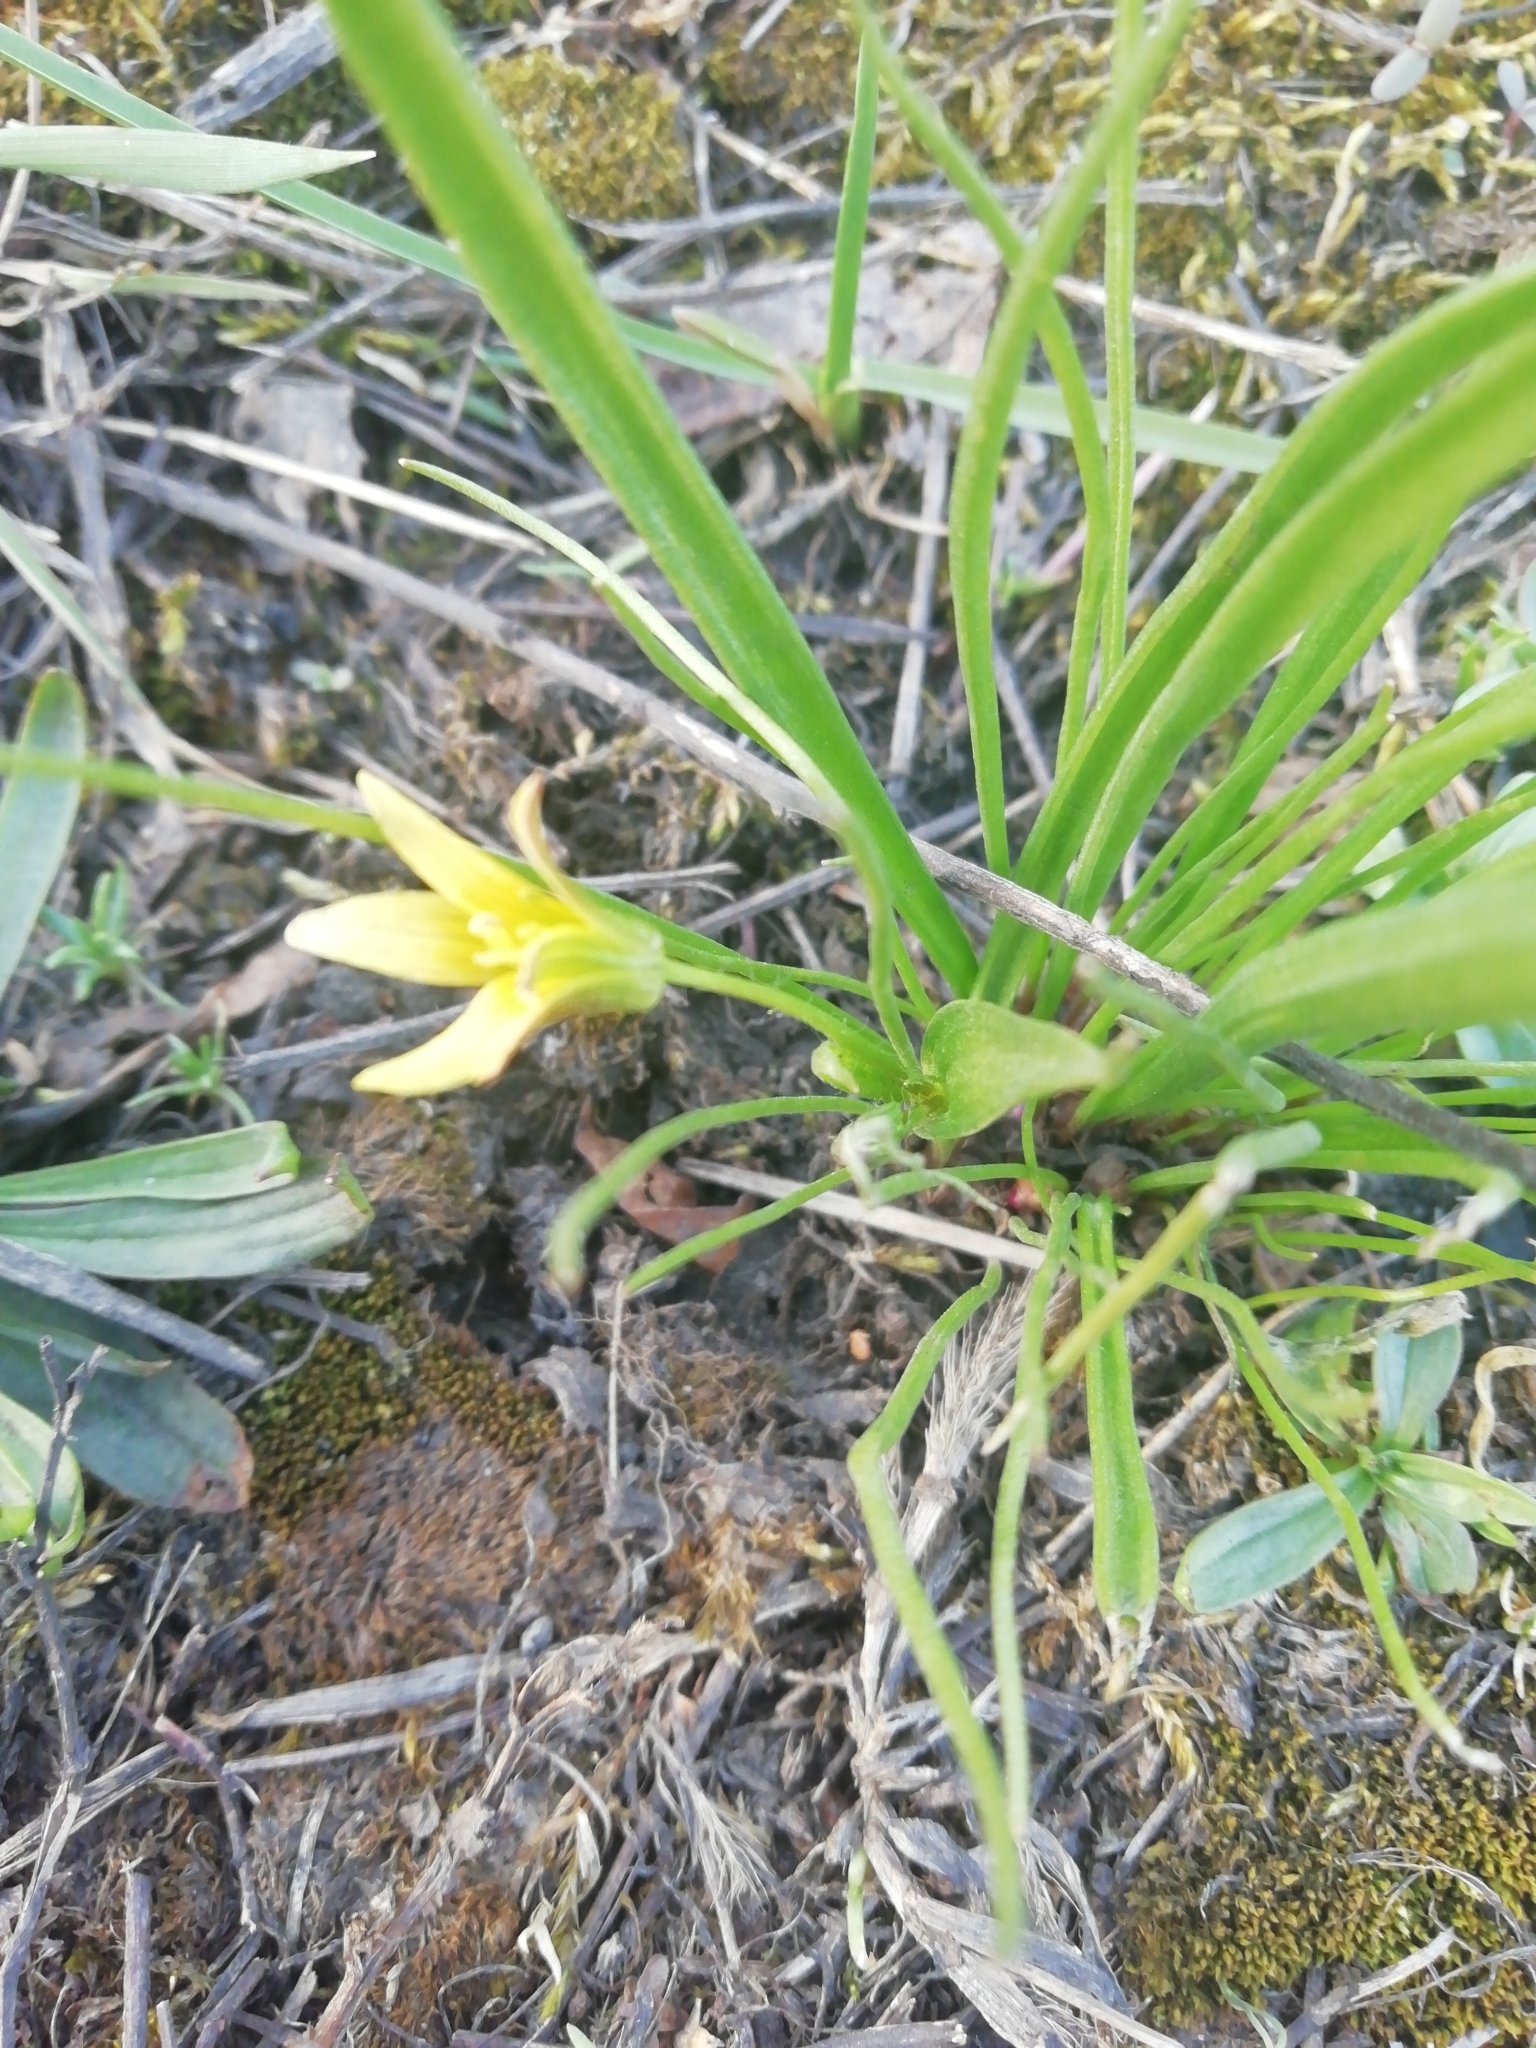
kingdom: Plantae
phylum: Tracheophyta
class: Liliopsida
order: Liliales
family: Liliaceae
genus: Gagea
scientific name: Gagea granulosa
